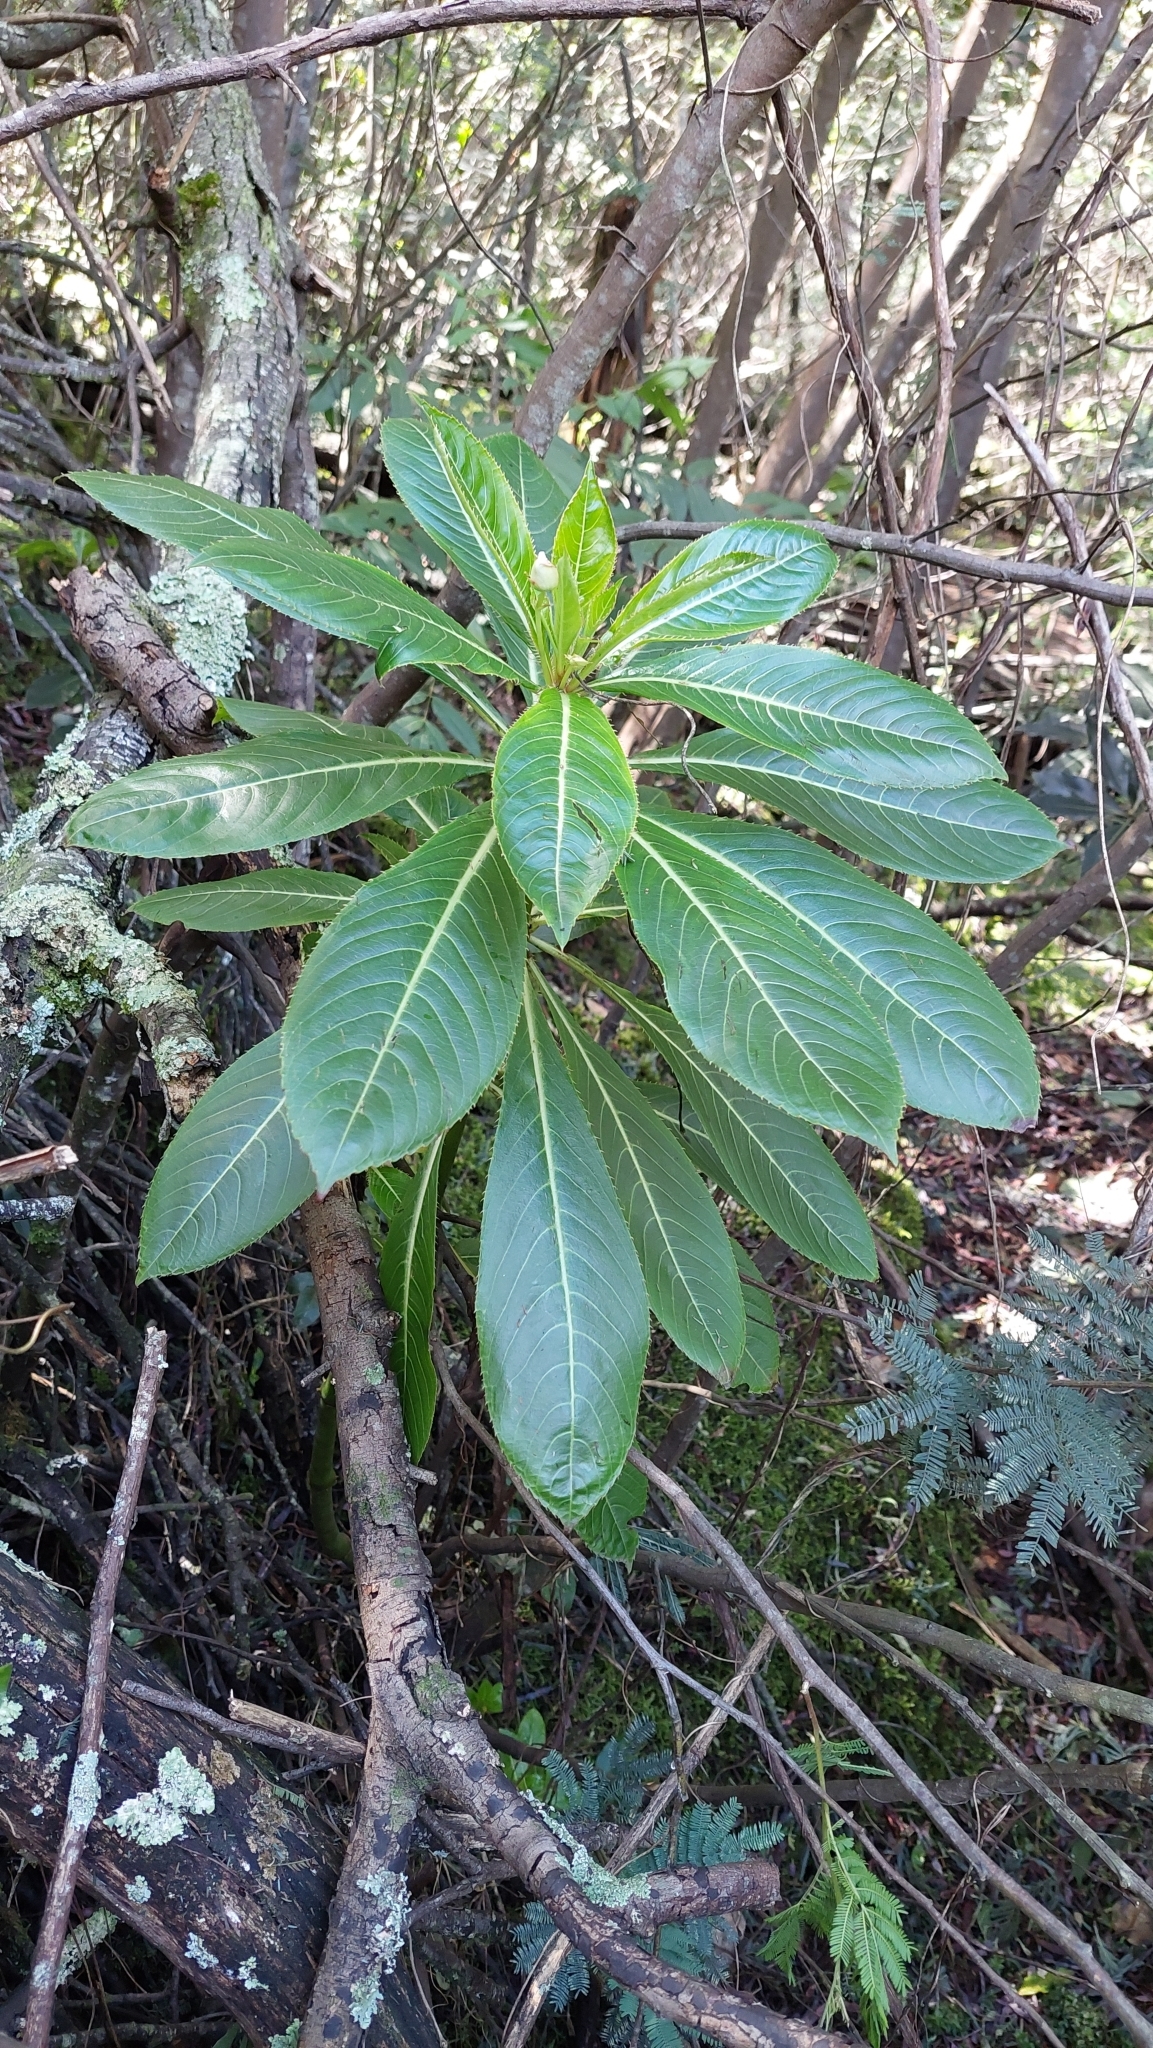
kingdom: Plantae
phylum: Tracheophyta
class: Magnoliopsida
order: Ericales
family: Balsaminaceae
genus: Impatiens
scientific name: Impatiens sodenii
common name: Oliver's touch-me-not
